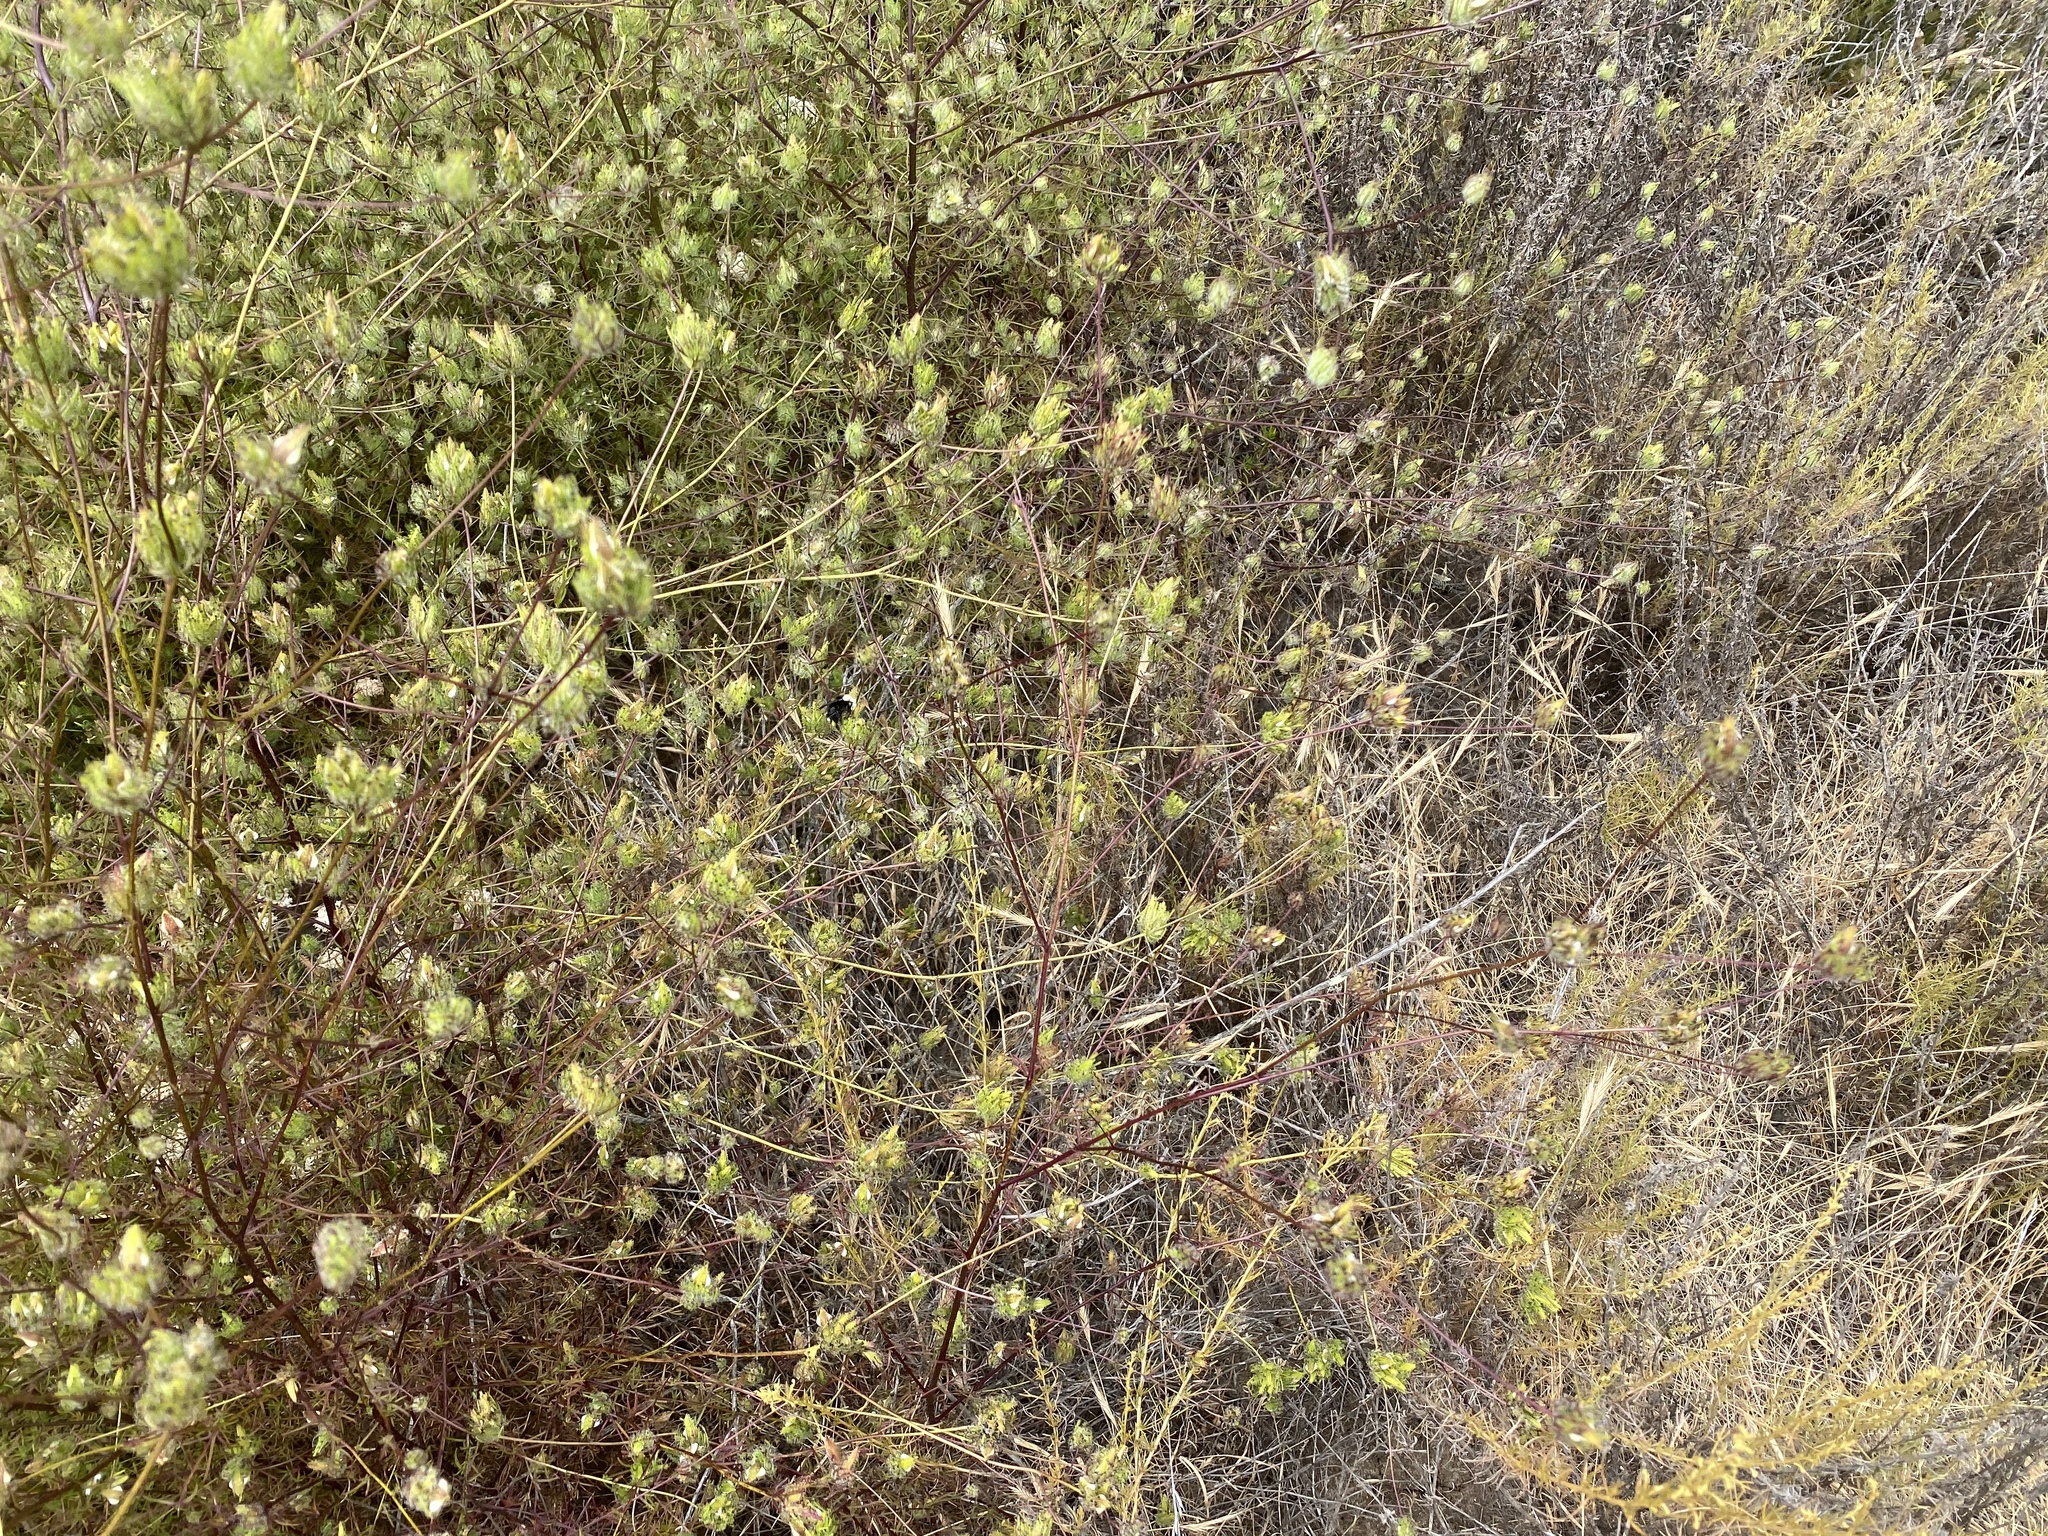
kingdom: Plantae
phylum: Tracheophyta
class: Magnoliopsida
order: Lamiales
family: Orobanchaceae
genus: Cordylanthus
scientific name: Cordylanthus rigidus
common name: Stiff-branch bird's-beak
